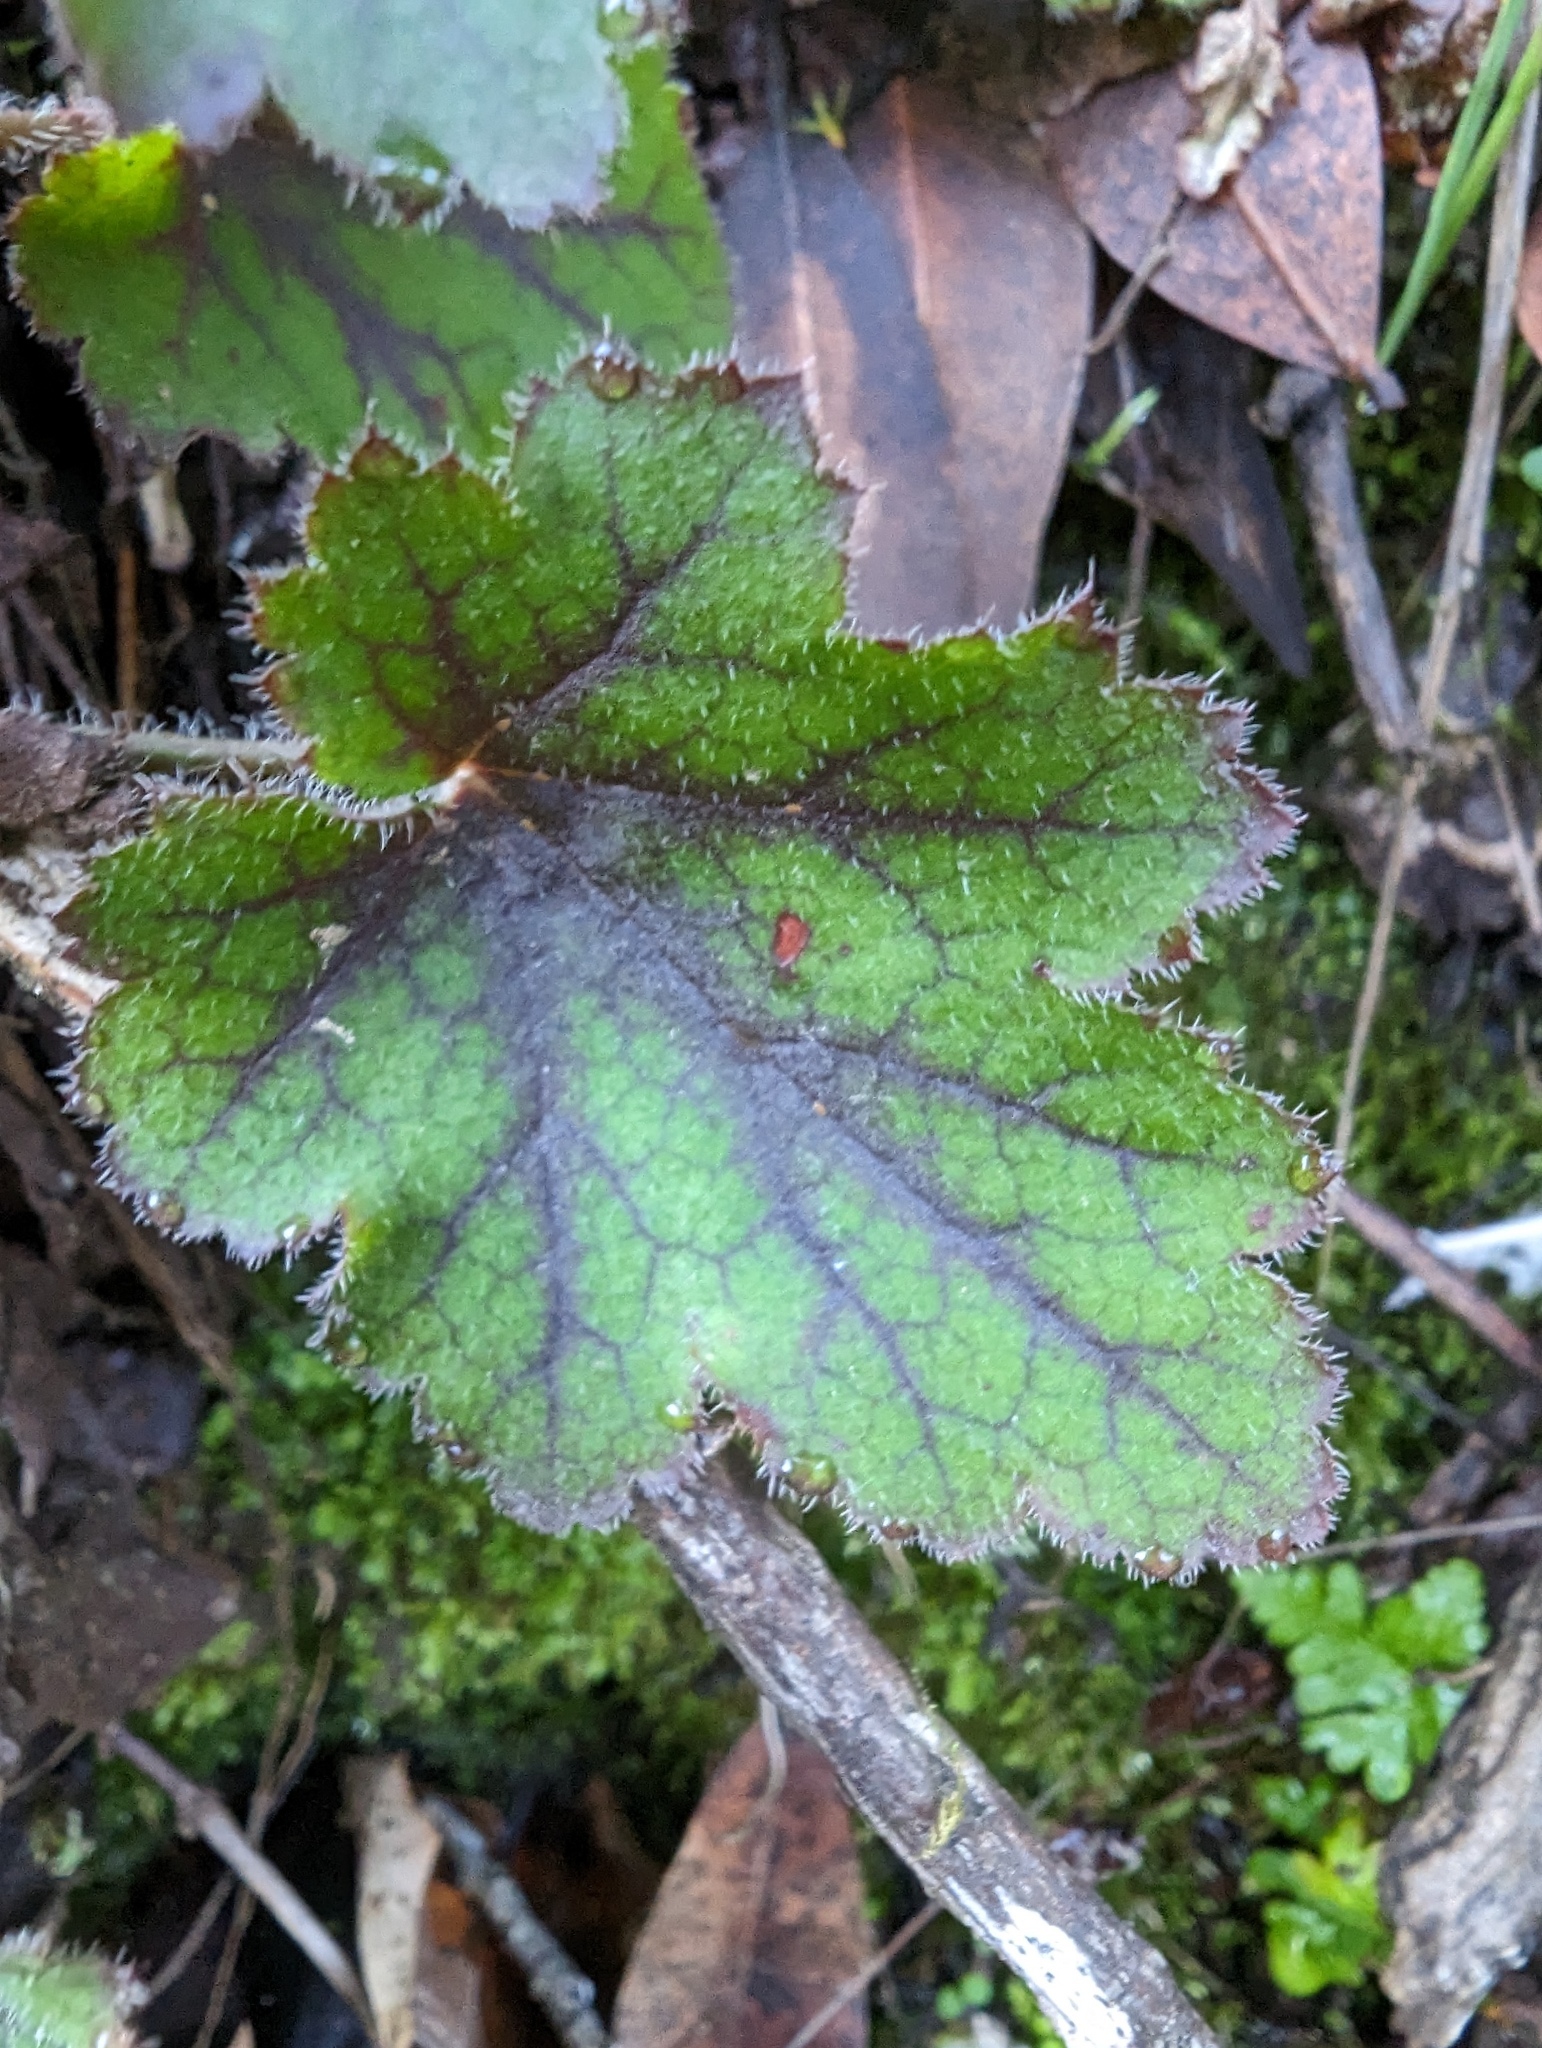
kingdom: Plantae
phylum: Tracheophyta
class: Magnoliopsida
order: Saxifragales
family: Saxifragaceae
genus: Heuchera
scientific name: Heuchera micrantha
